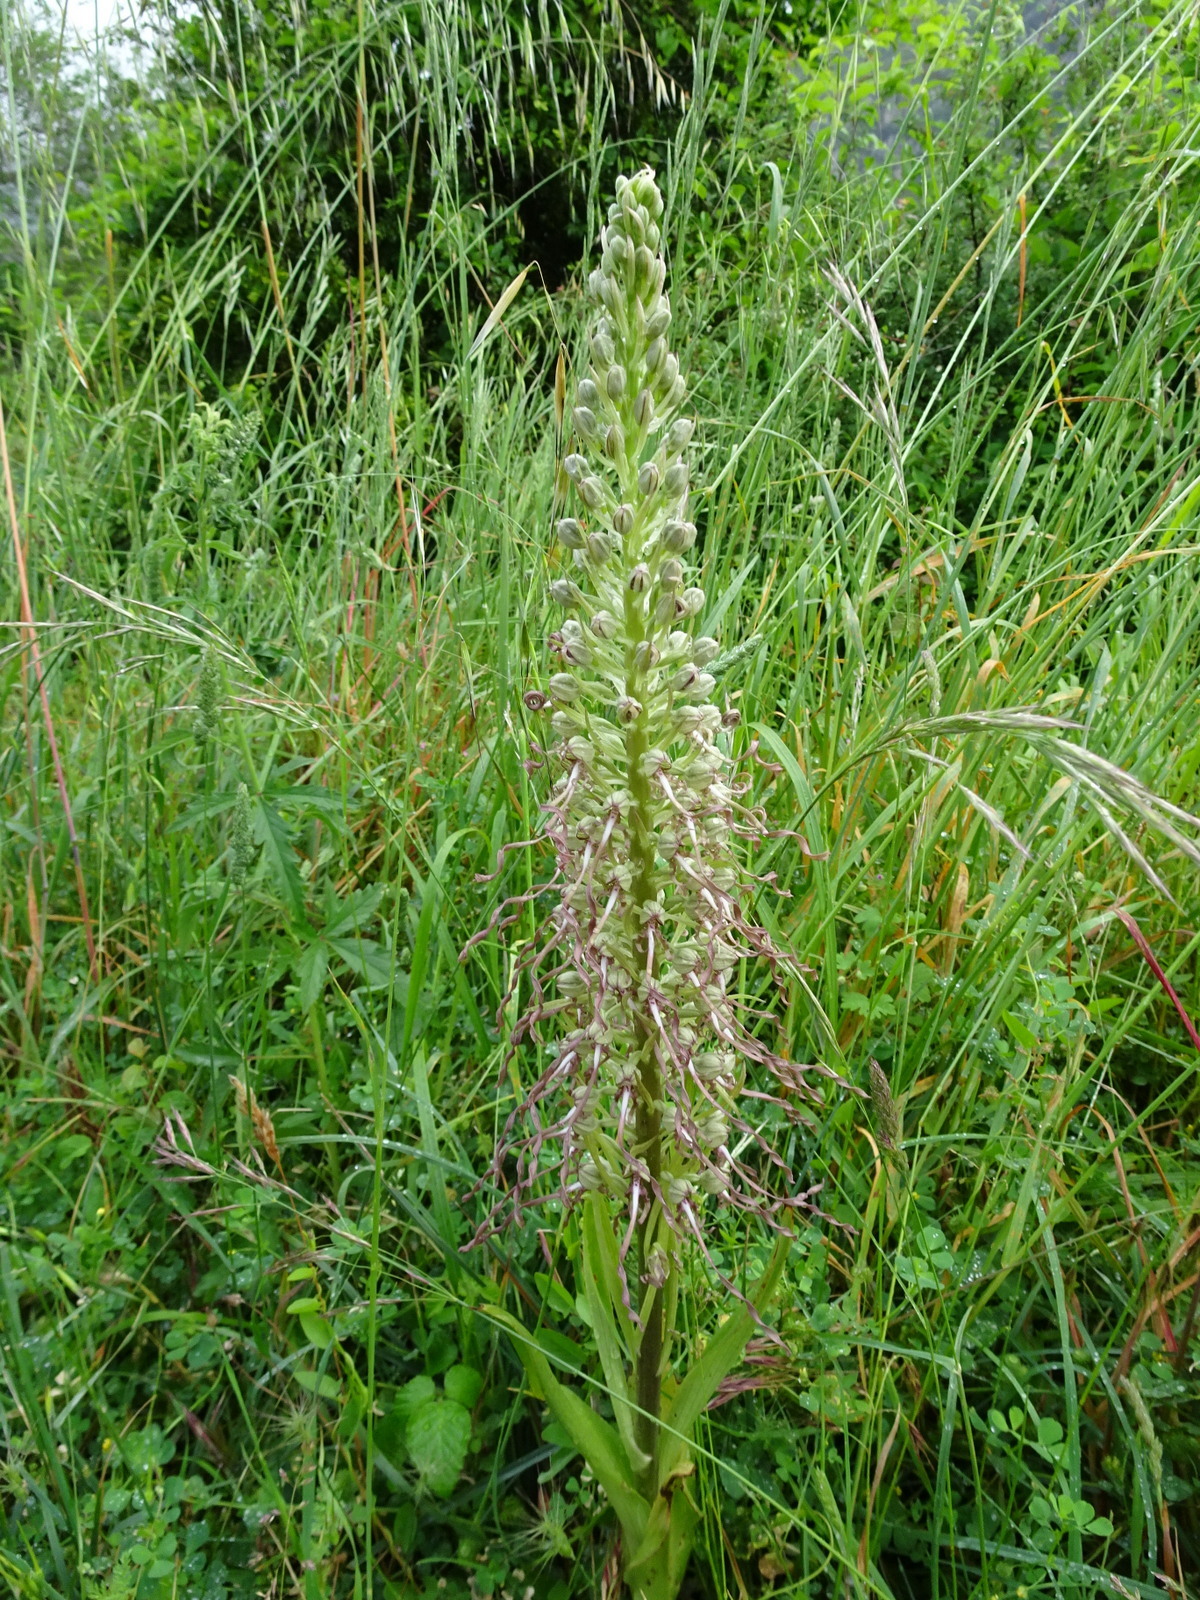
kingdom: Plantae
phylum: Tracheophyta
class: Liliopsida
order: Asparagales
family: Orchidaceae
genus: Himantoglossum
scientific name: Himantoglossum hircinum
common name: Lizard orchid
